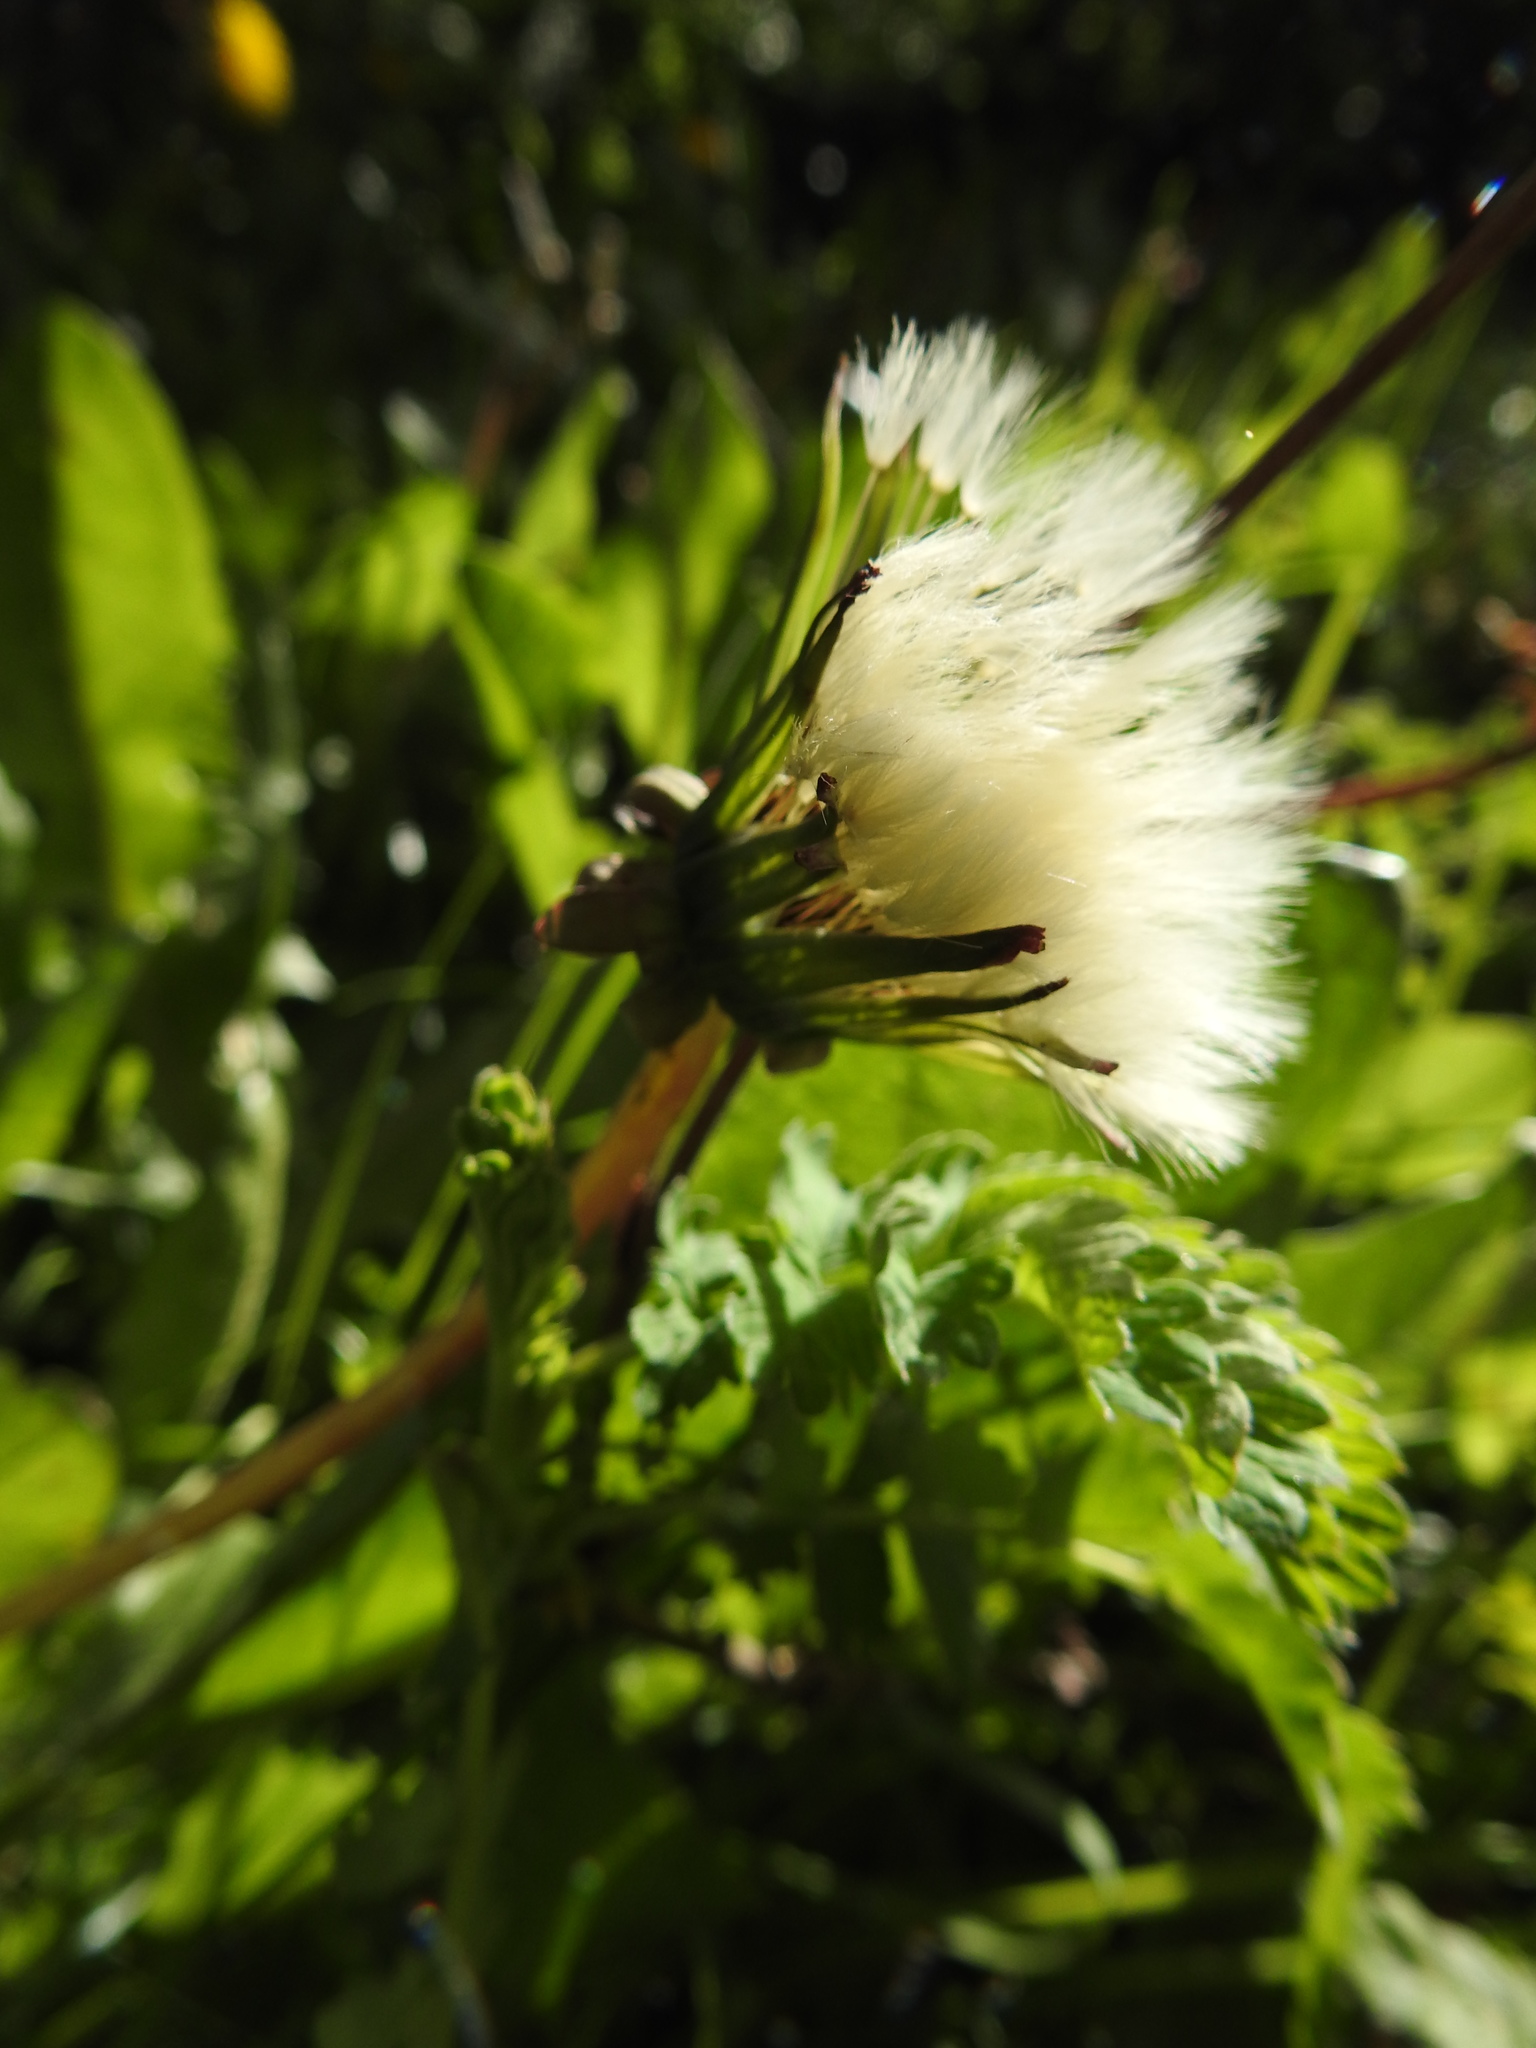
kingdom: Plantae
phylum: Tracheophyta
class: Magnoliopsida
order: Asterales
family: Asteraceae
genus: Taraxacum
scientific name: Taraxacum officinale
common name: Common dandelion
